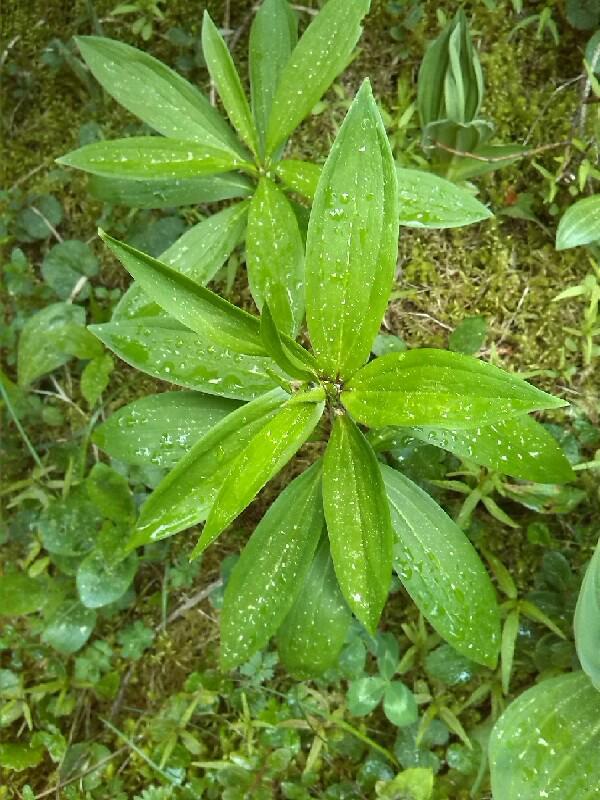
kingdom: Plantae
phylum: Tracheophyta
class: Liliopsida
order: Liliales
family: Liliaceae
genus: Lilium
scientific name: Lilium martagon
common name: Martagon lily
